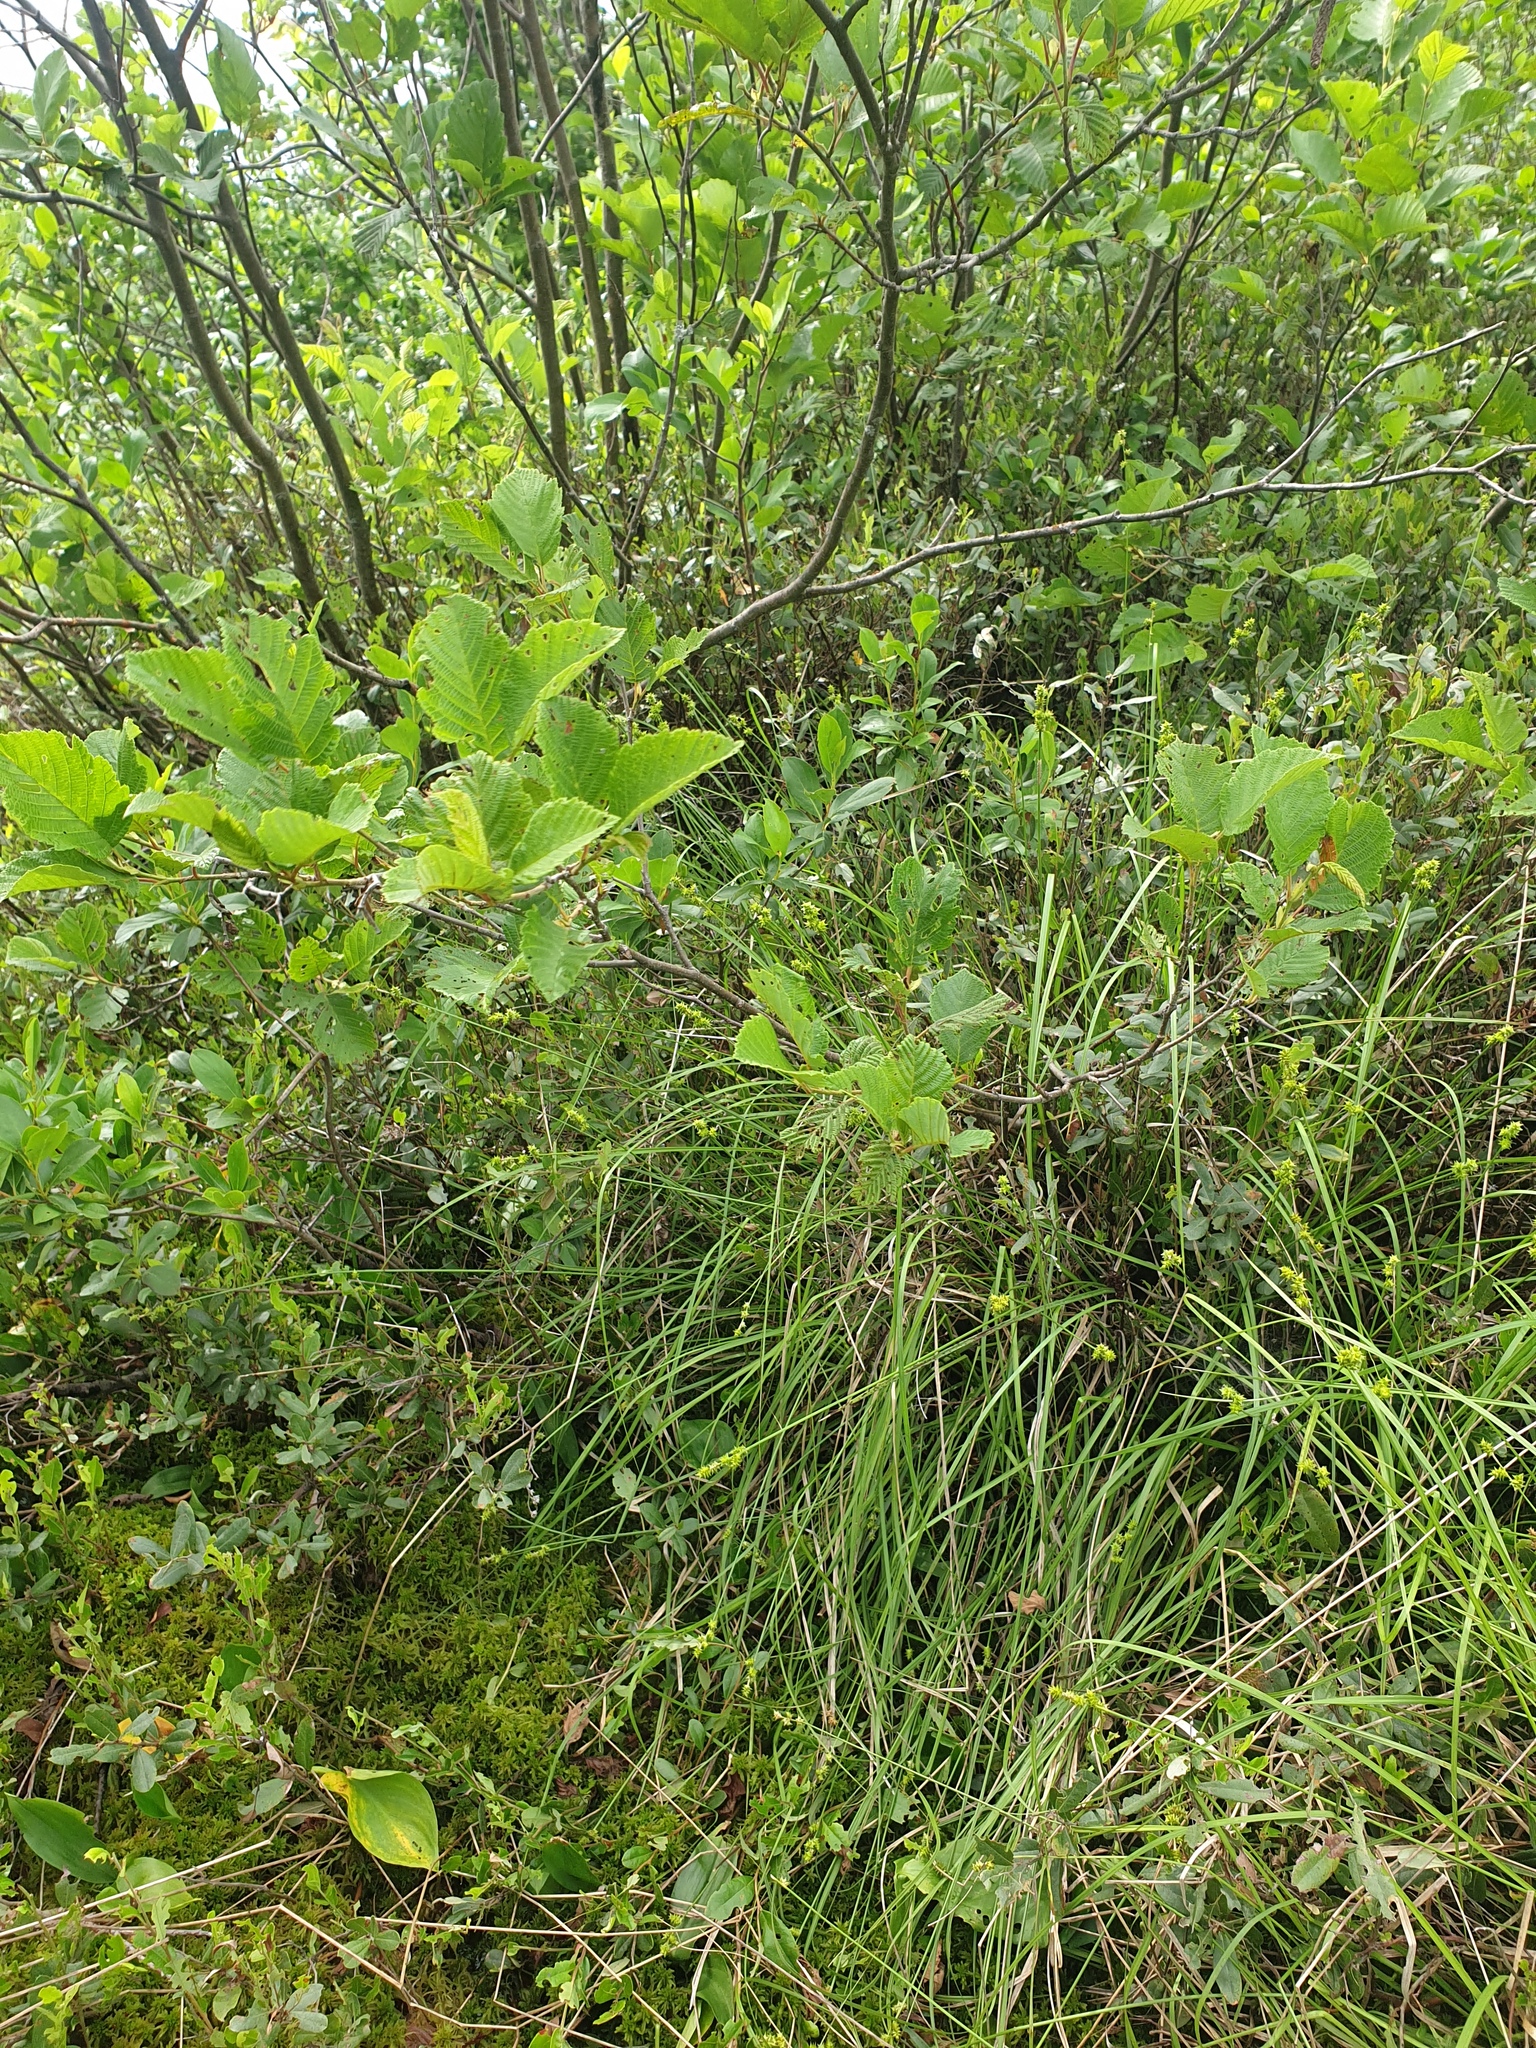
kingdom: Plantae
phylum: Tracheophyta
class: Magnoliopsida
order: Fagales
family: Betulaceae
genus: Alnus
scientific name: Alnus incana
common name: Grey alder
